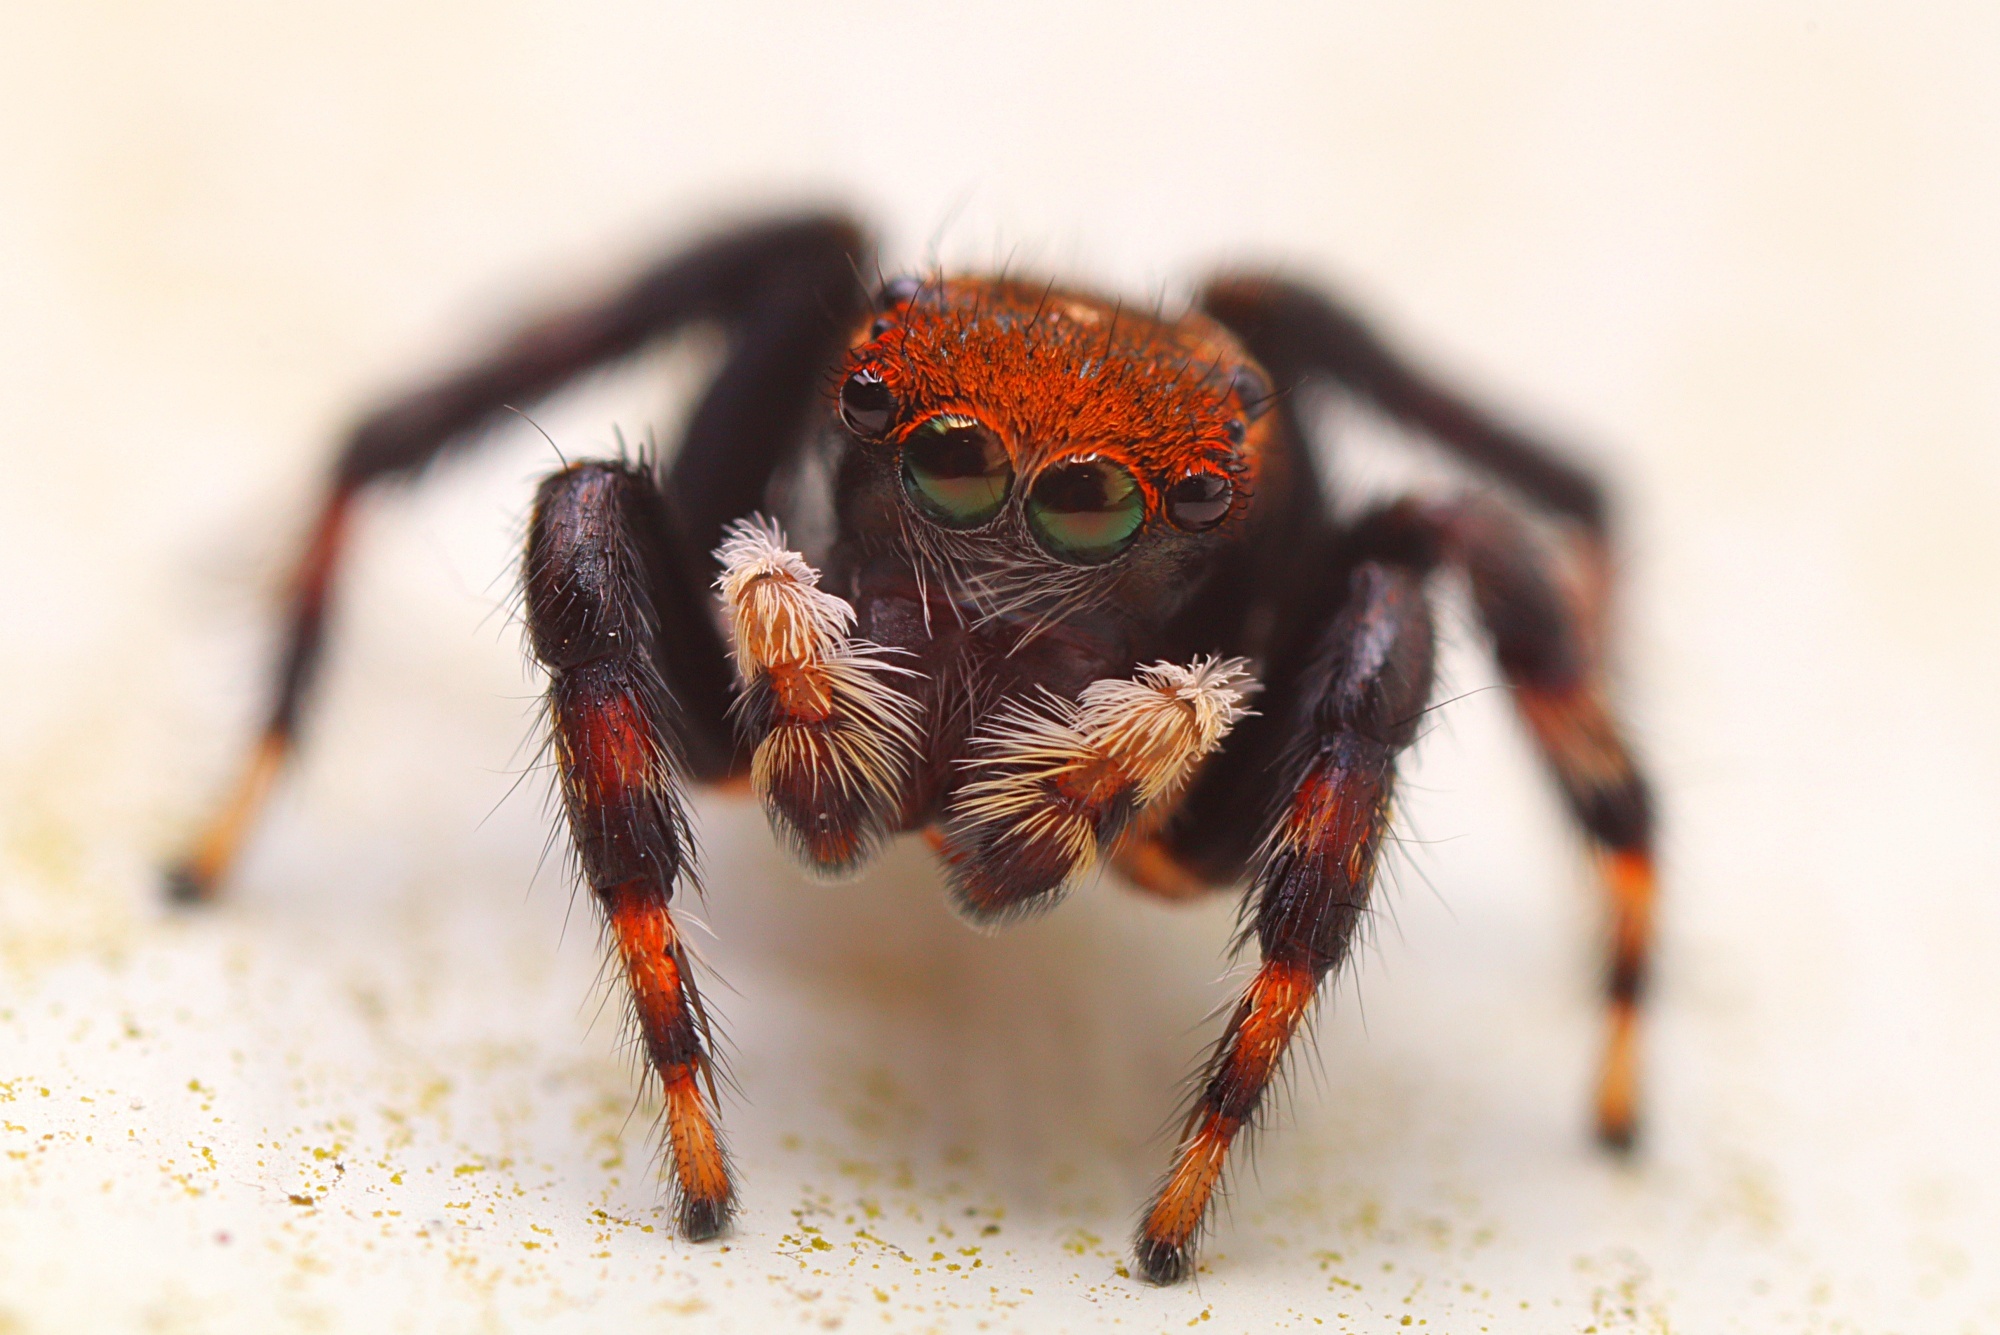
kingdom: Animalia
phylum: Arthropoda
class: Arachnida
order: Araneae
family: Salticidae
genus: Maratus
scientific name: Maratus griseus
